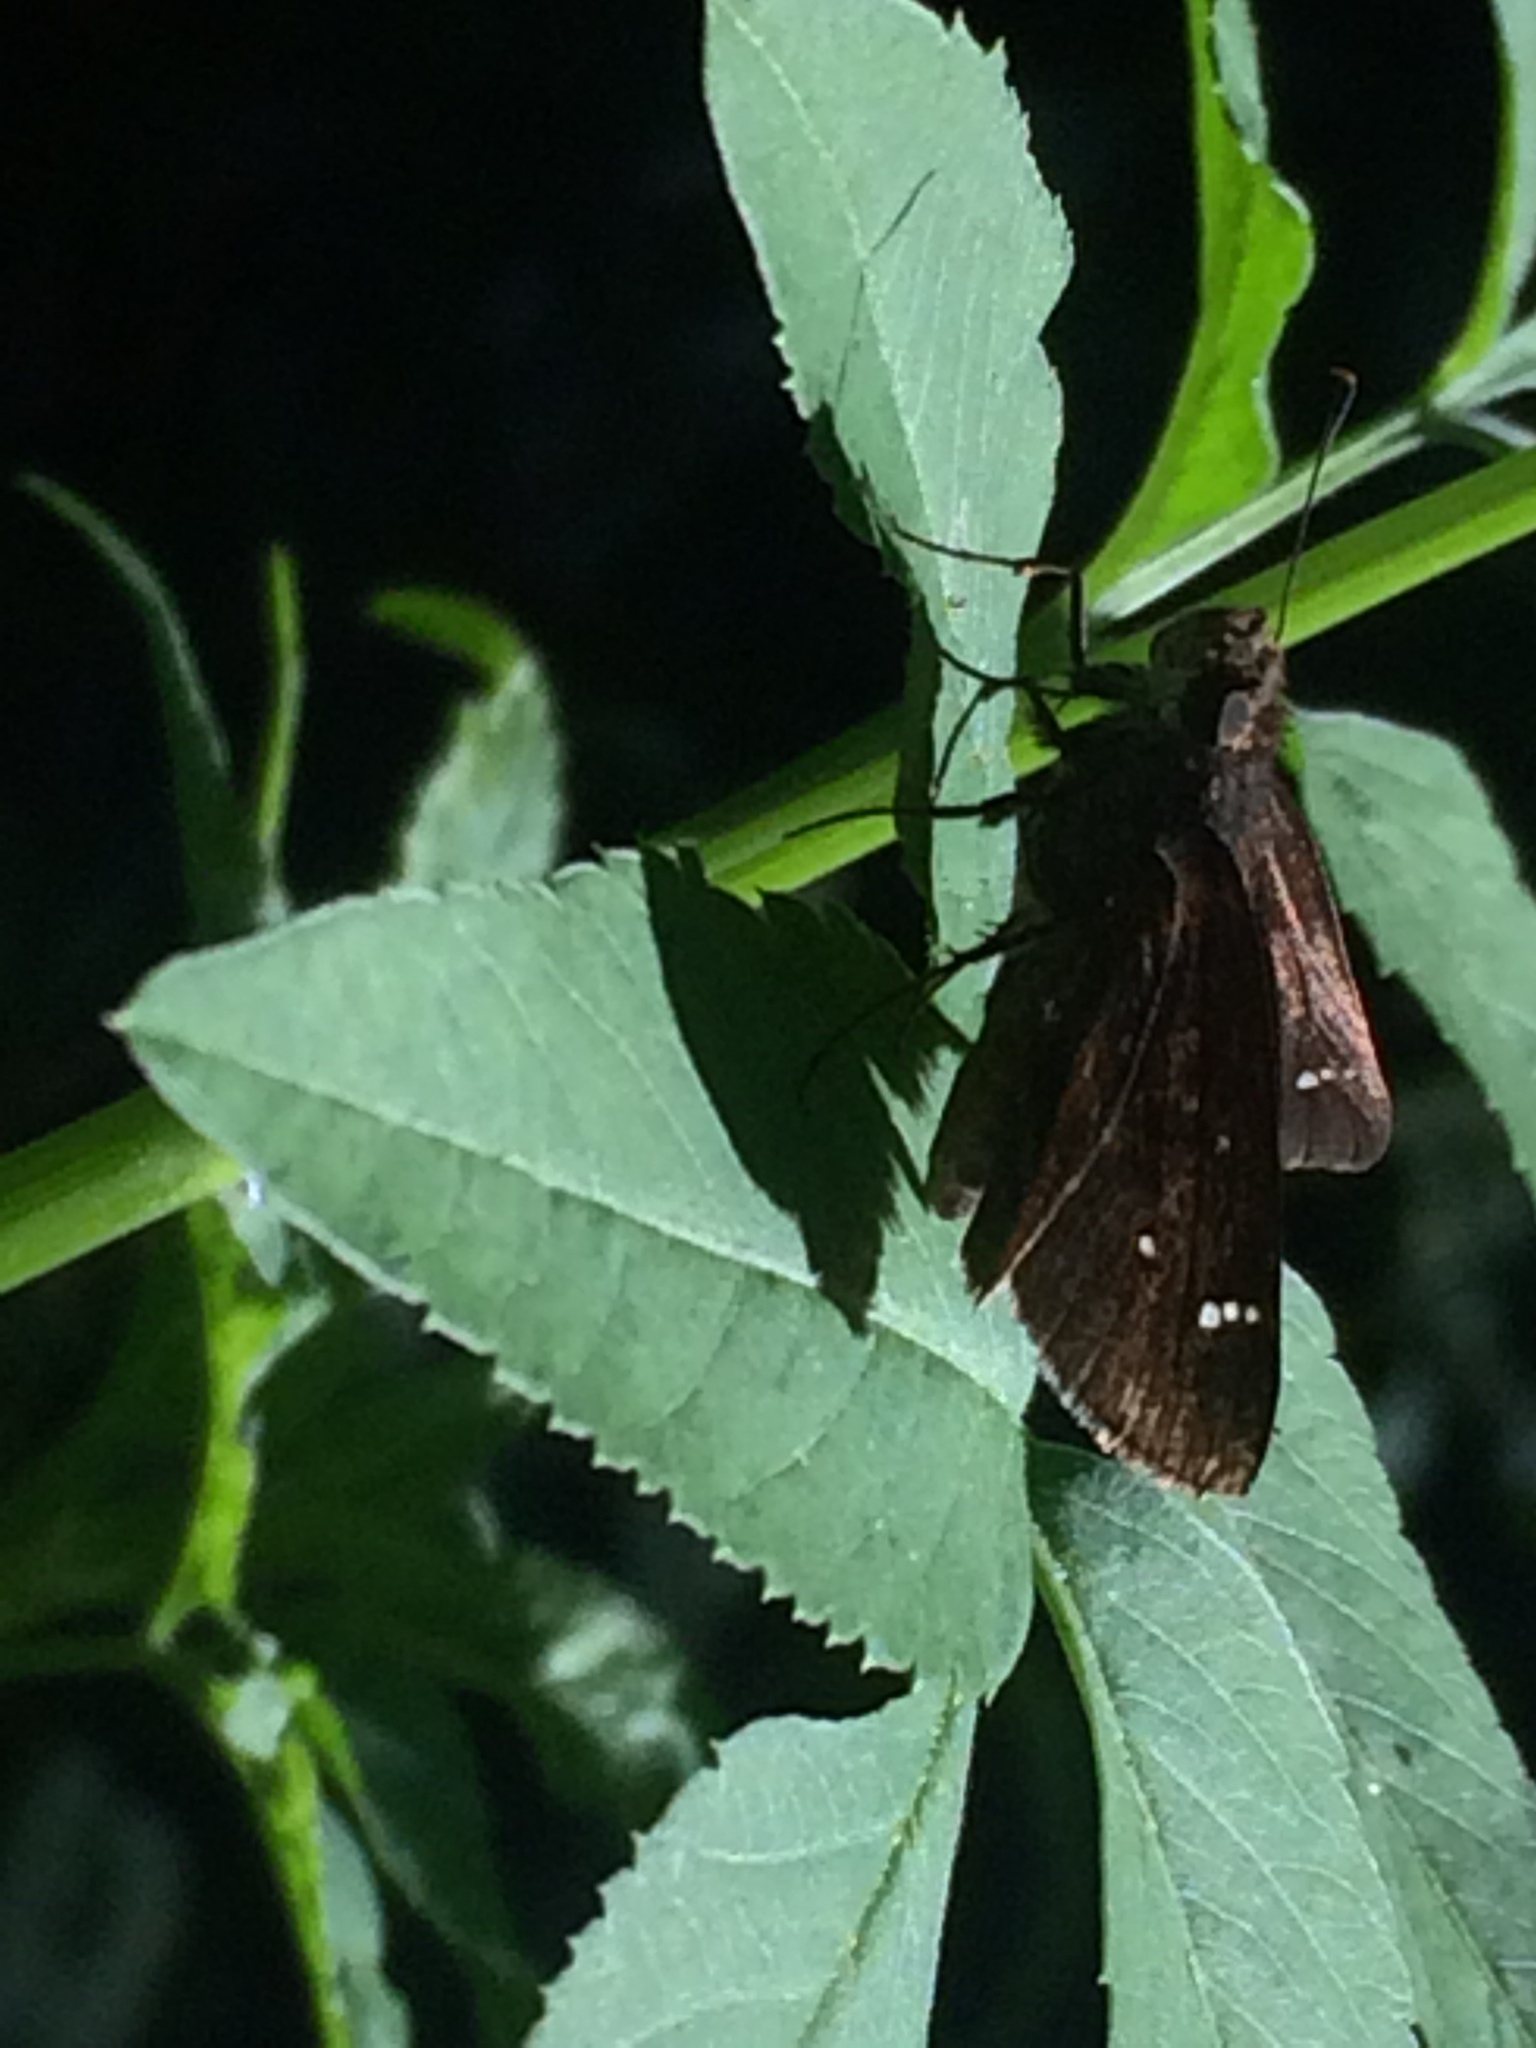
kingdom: Animalia
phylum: Arthropoda
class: Insecta
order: Lepidoptera
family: Hesperiidae
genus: Lerema
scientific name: Lerema accius
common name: Clouded skipper
